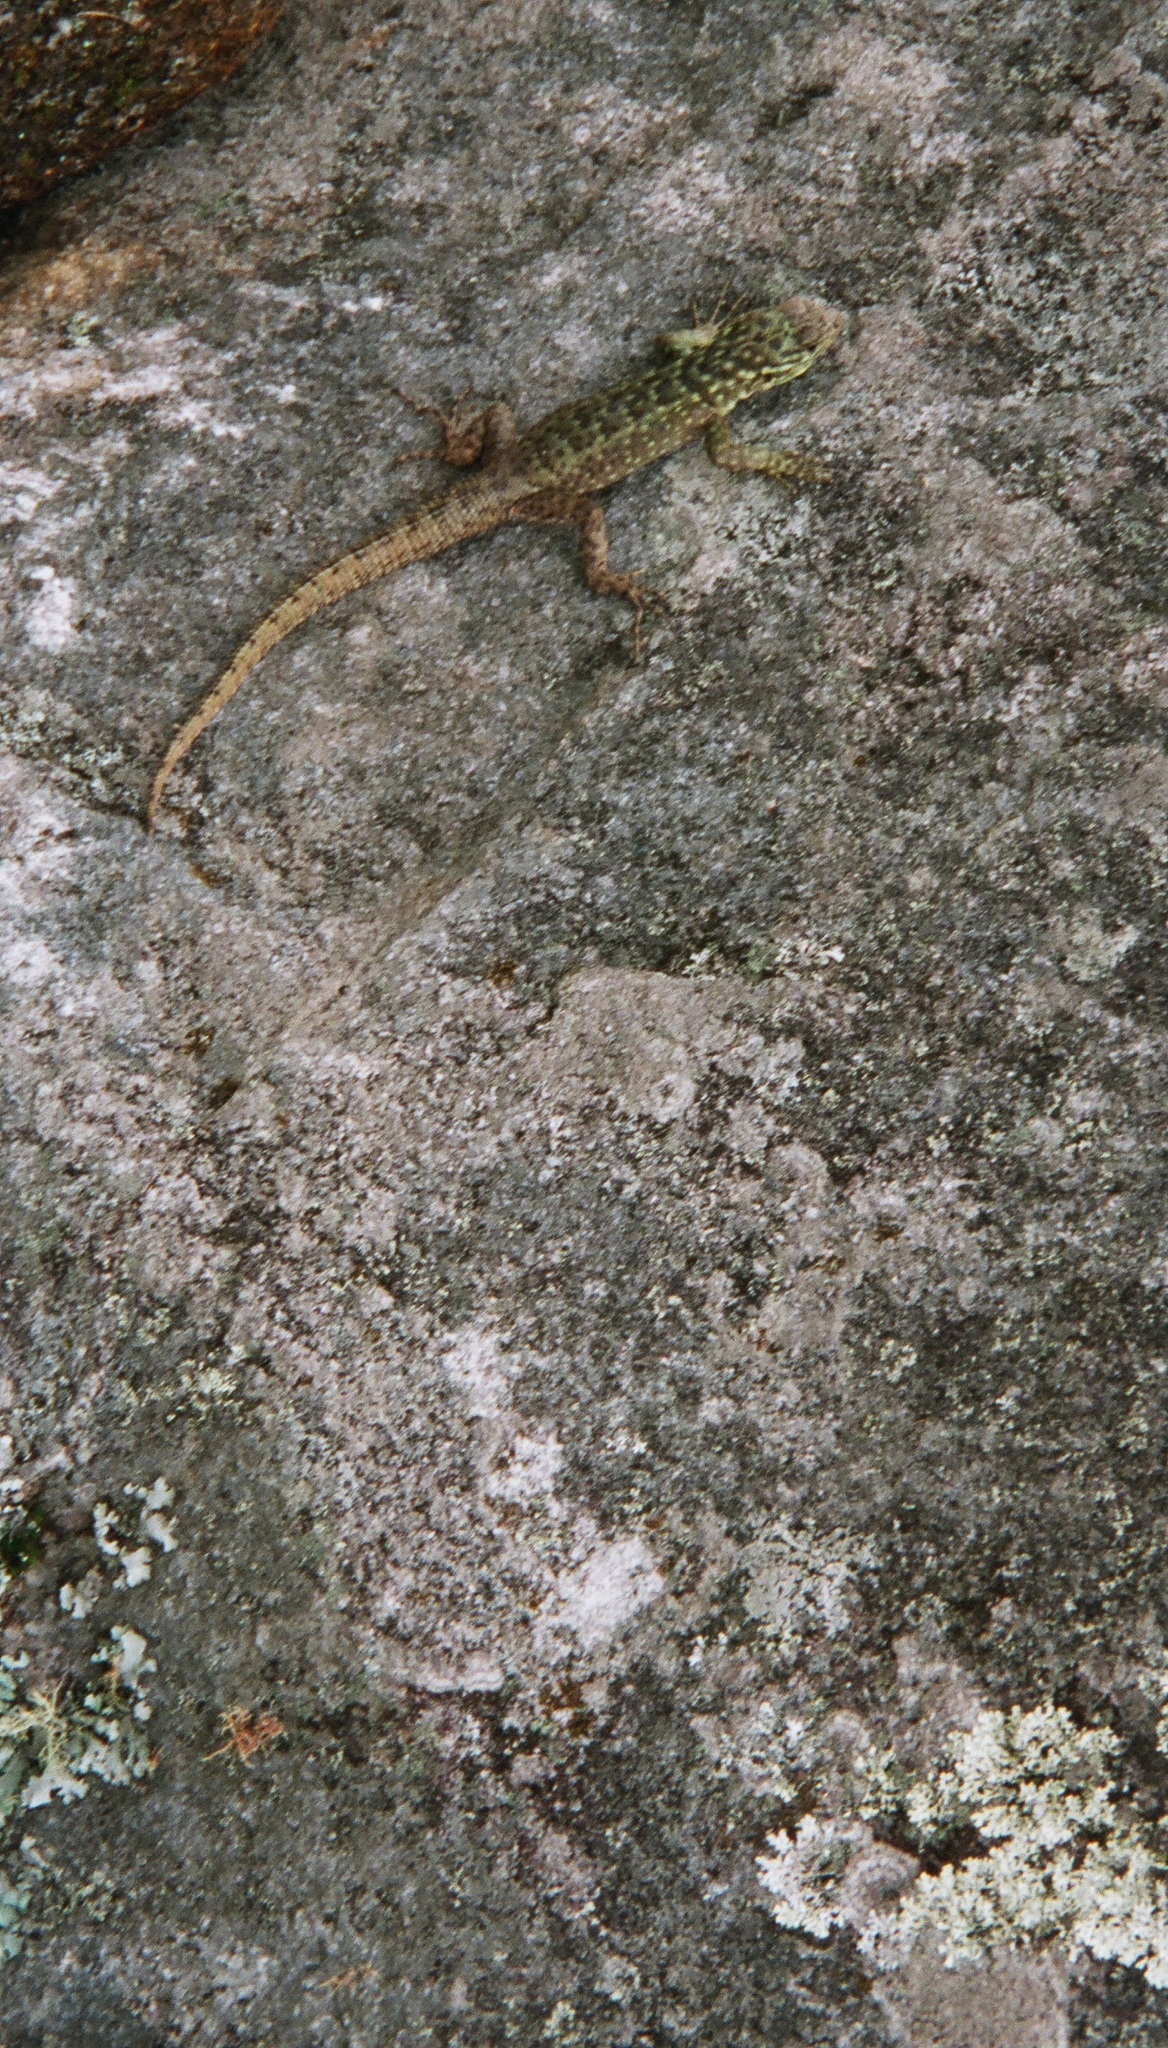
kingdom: Animalia
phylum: Chordata
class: Squamata
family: Tropiduridae
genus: Stenocercus
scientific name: Stenocercus crassicaudatus
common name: Spiny whorltail iguana
